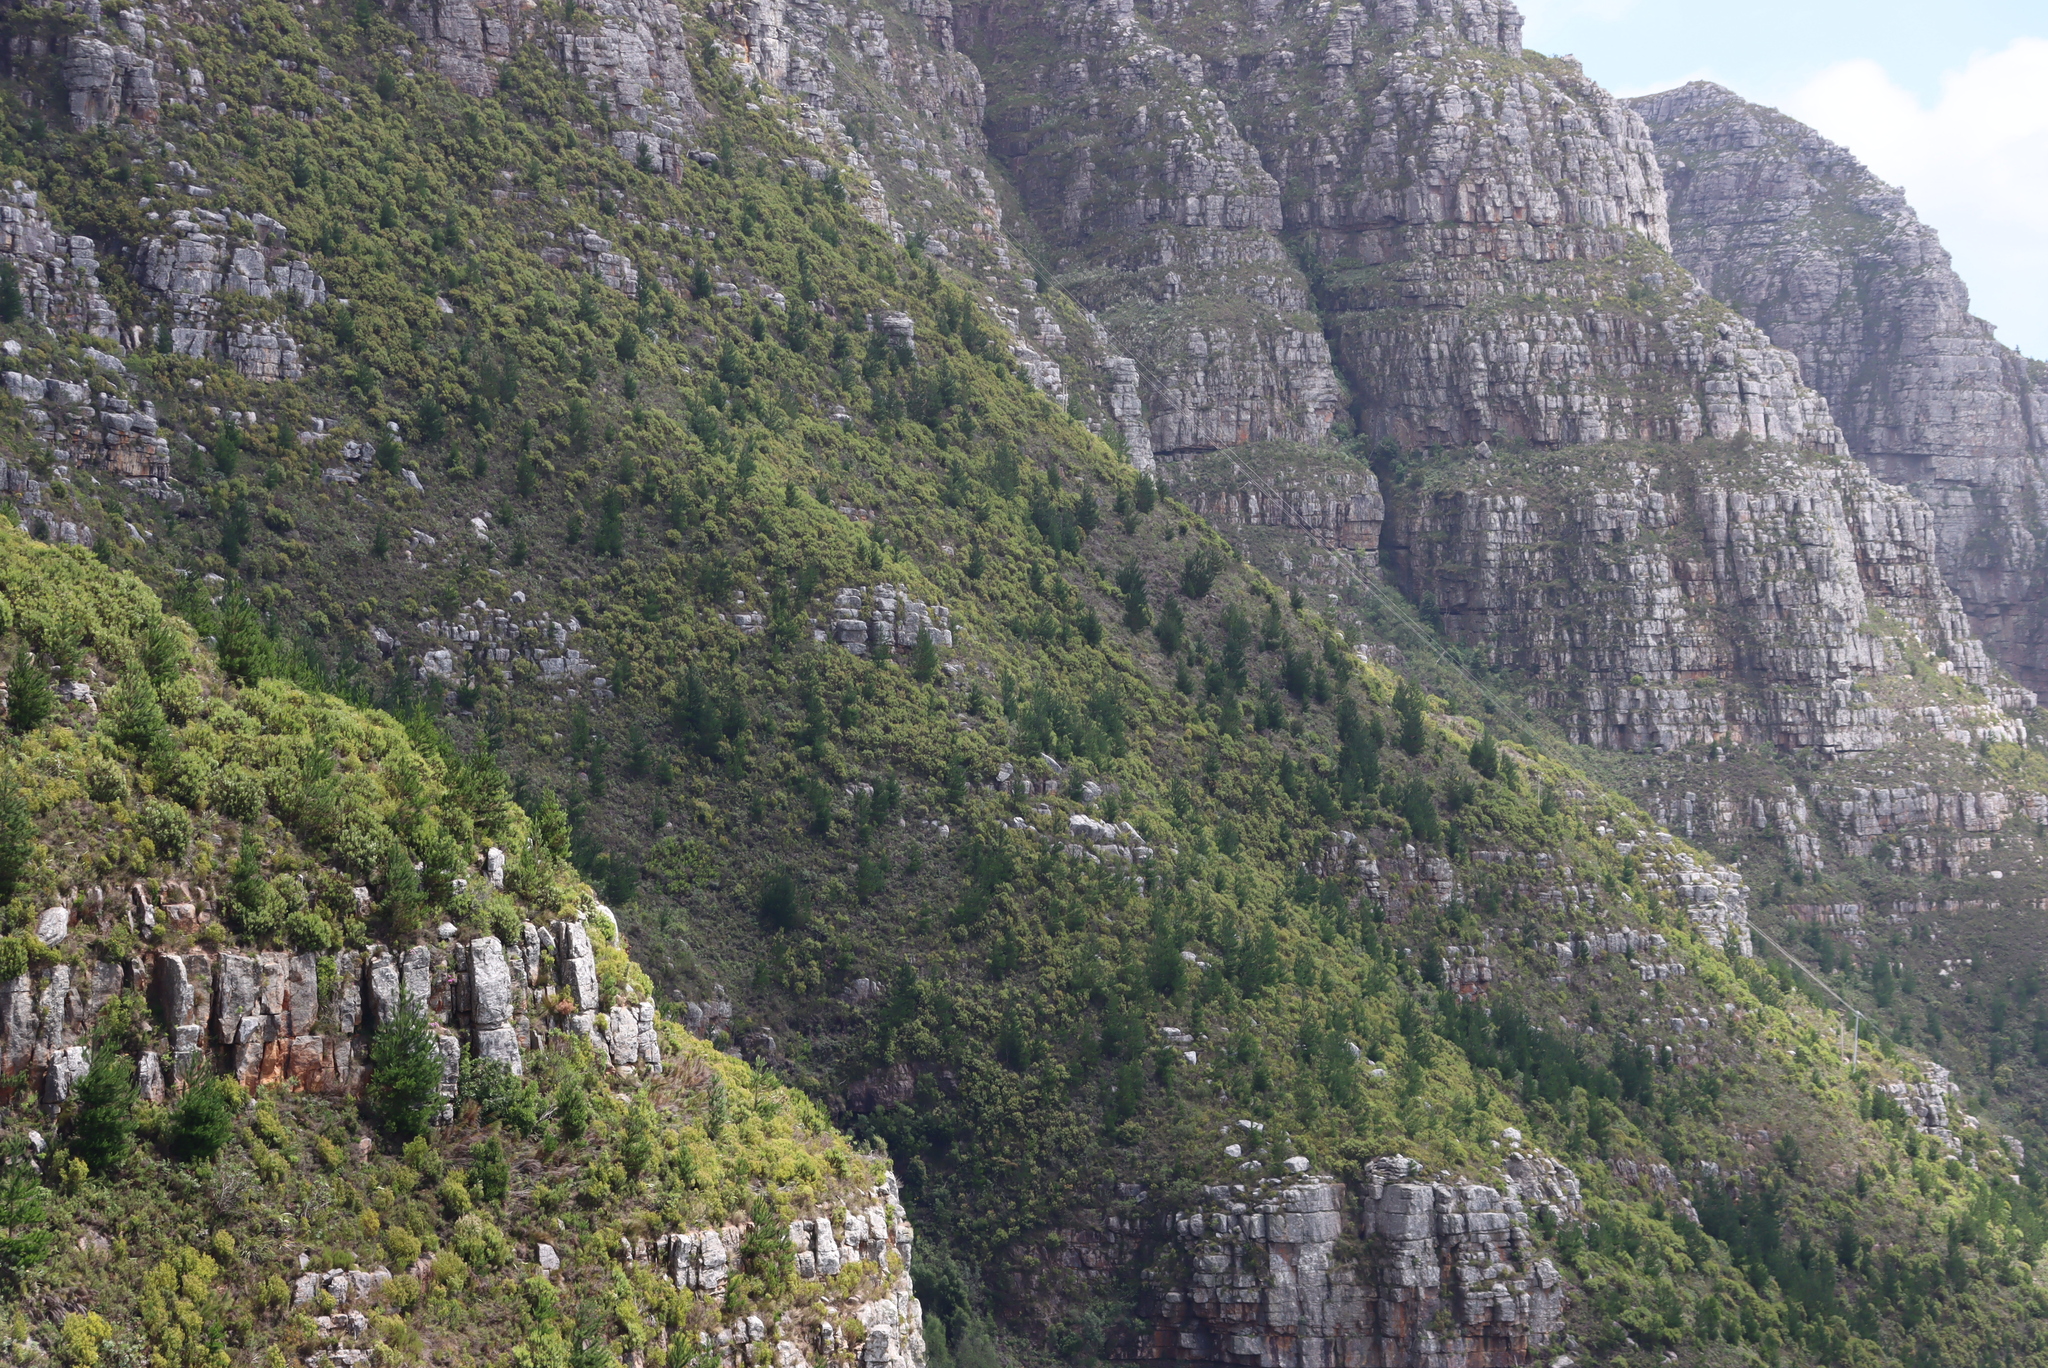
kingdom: Plantae
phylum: Tracheophyta
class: Pinopsida
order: Pinales
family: Pinaceae
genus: Pinus
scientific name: Pinus radiata
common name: Monterey pine
